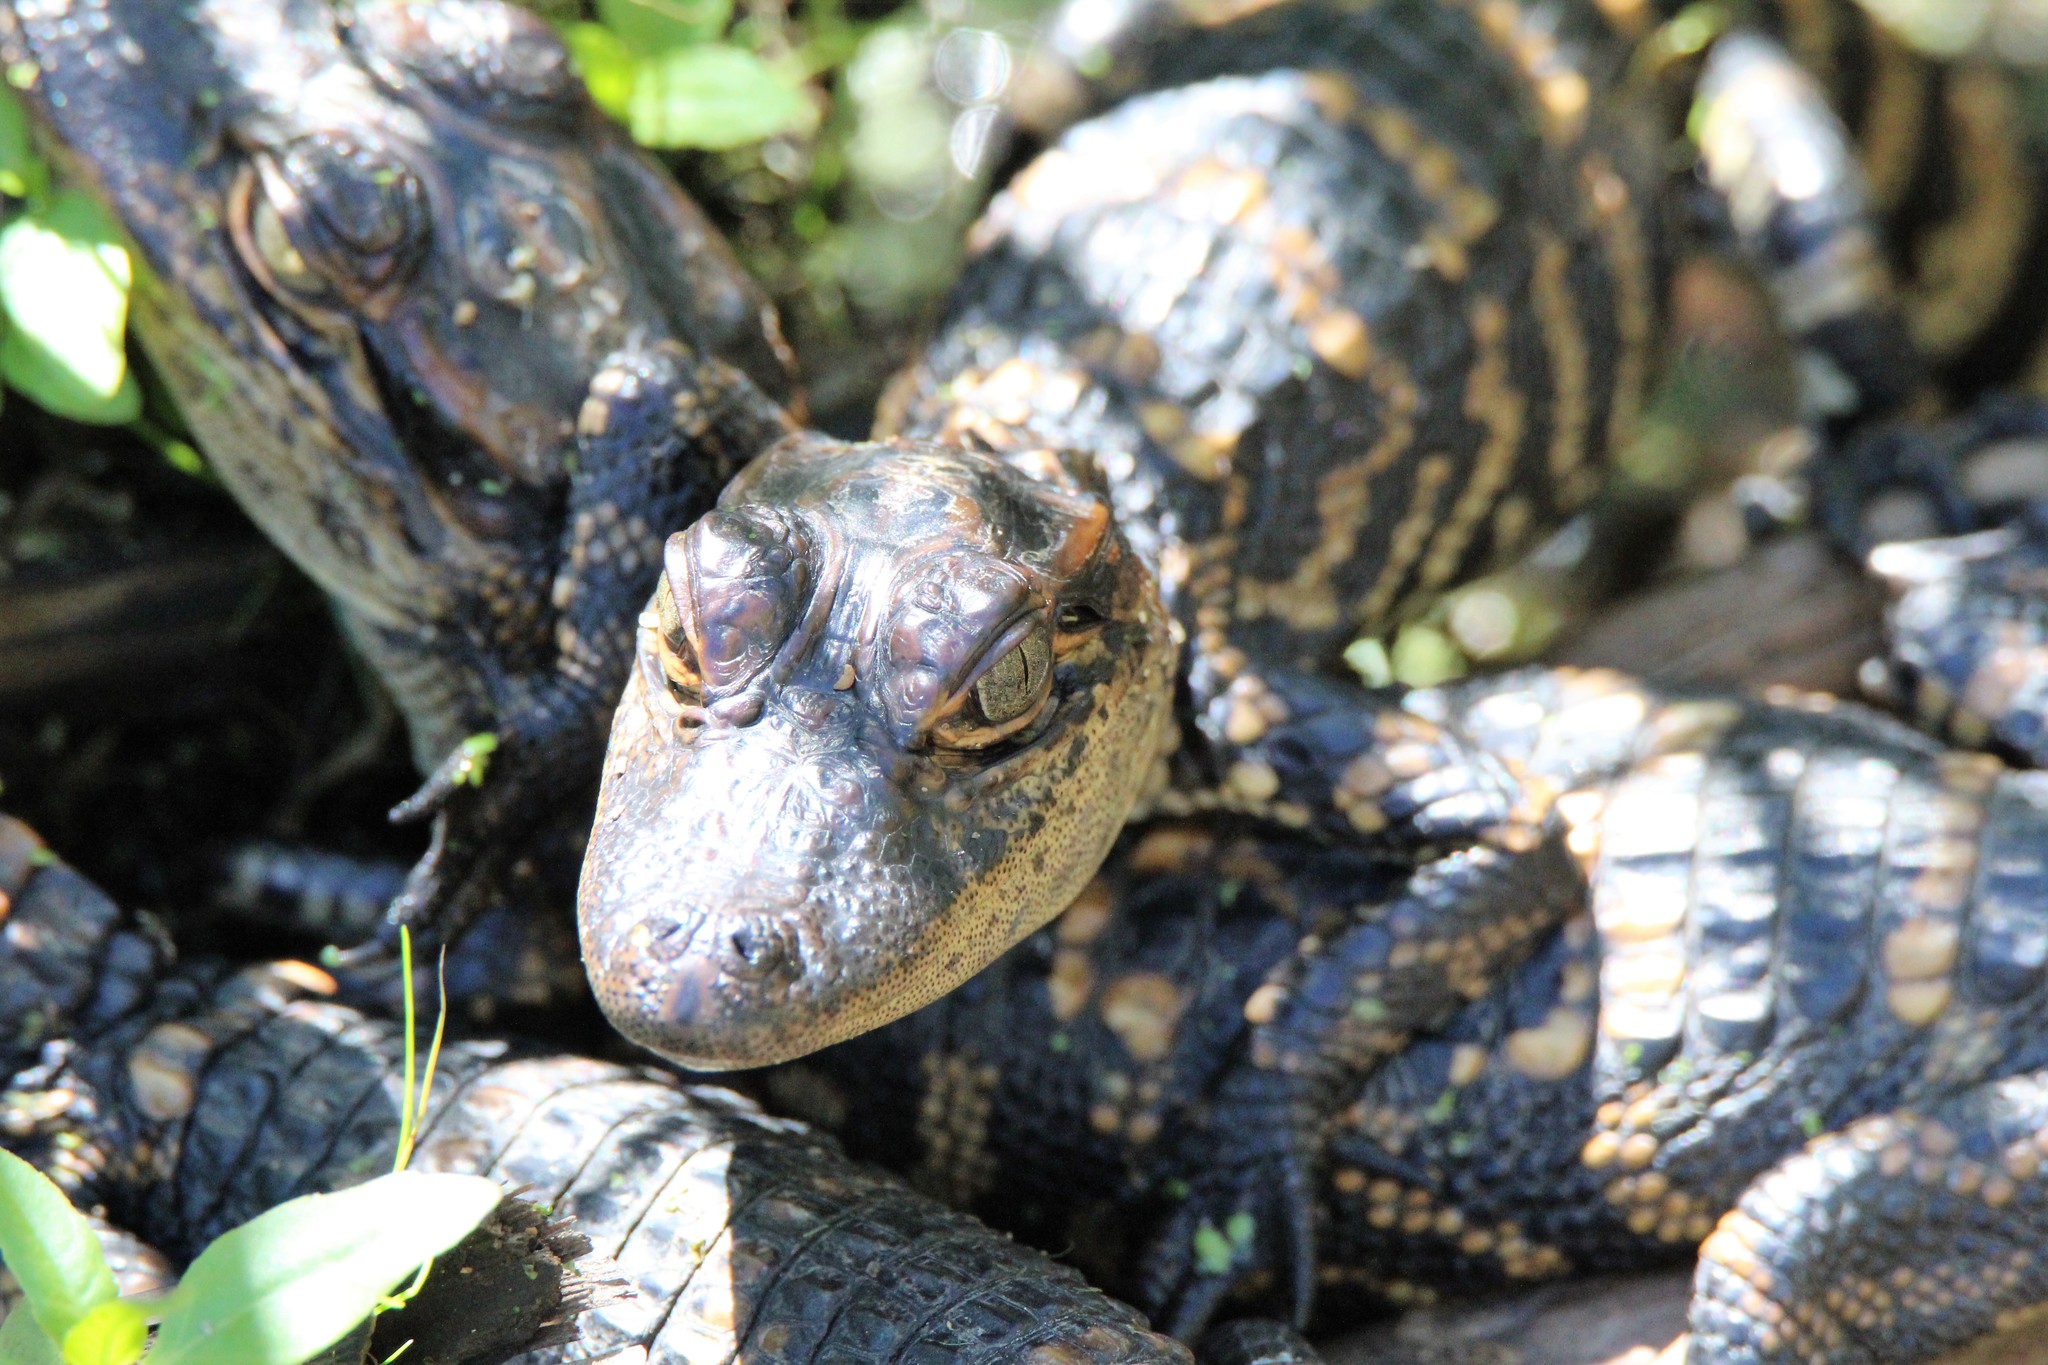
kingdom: Animalia
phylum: Chordata
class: Crocodylia
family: Alligatoridae
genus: Alligator
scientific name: Alligator mississippiensis
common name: American alligator
